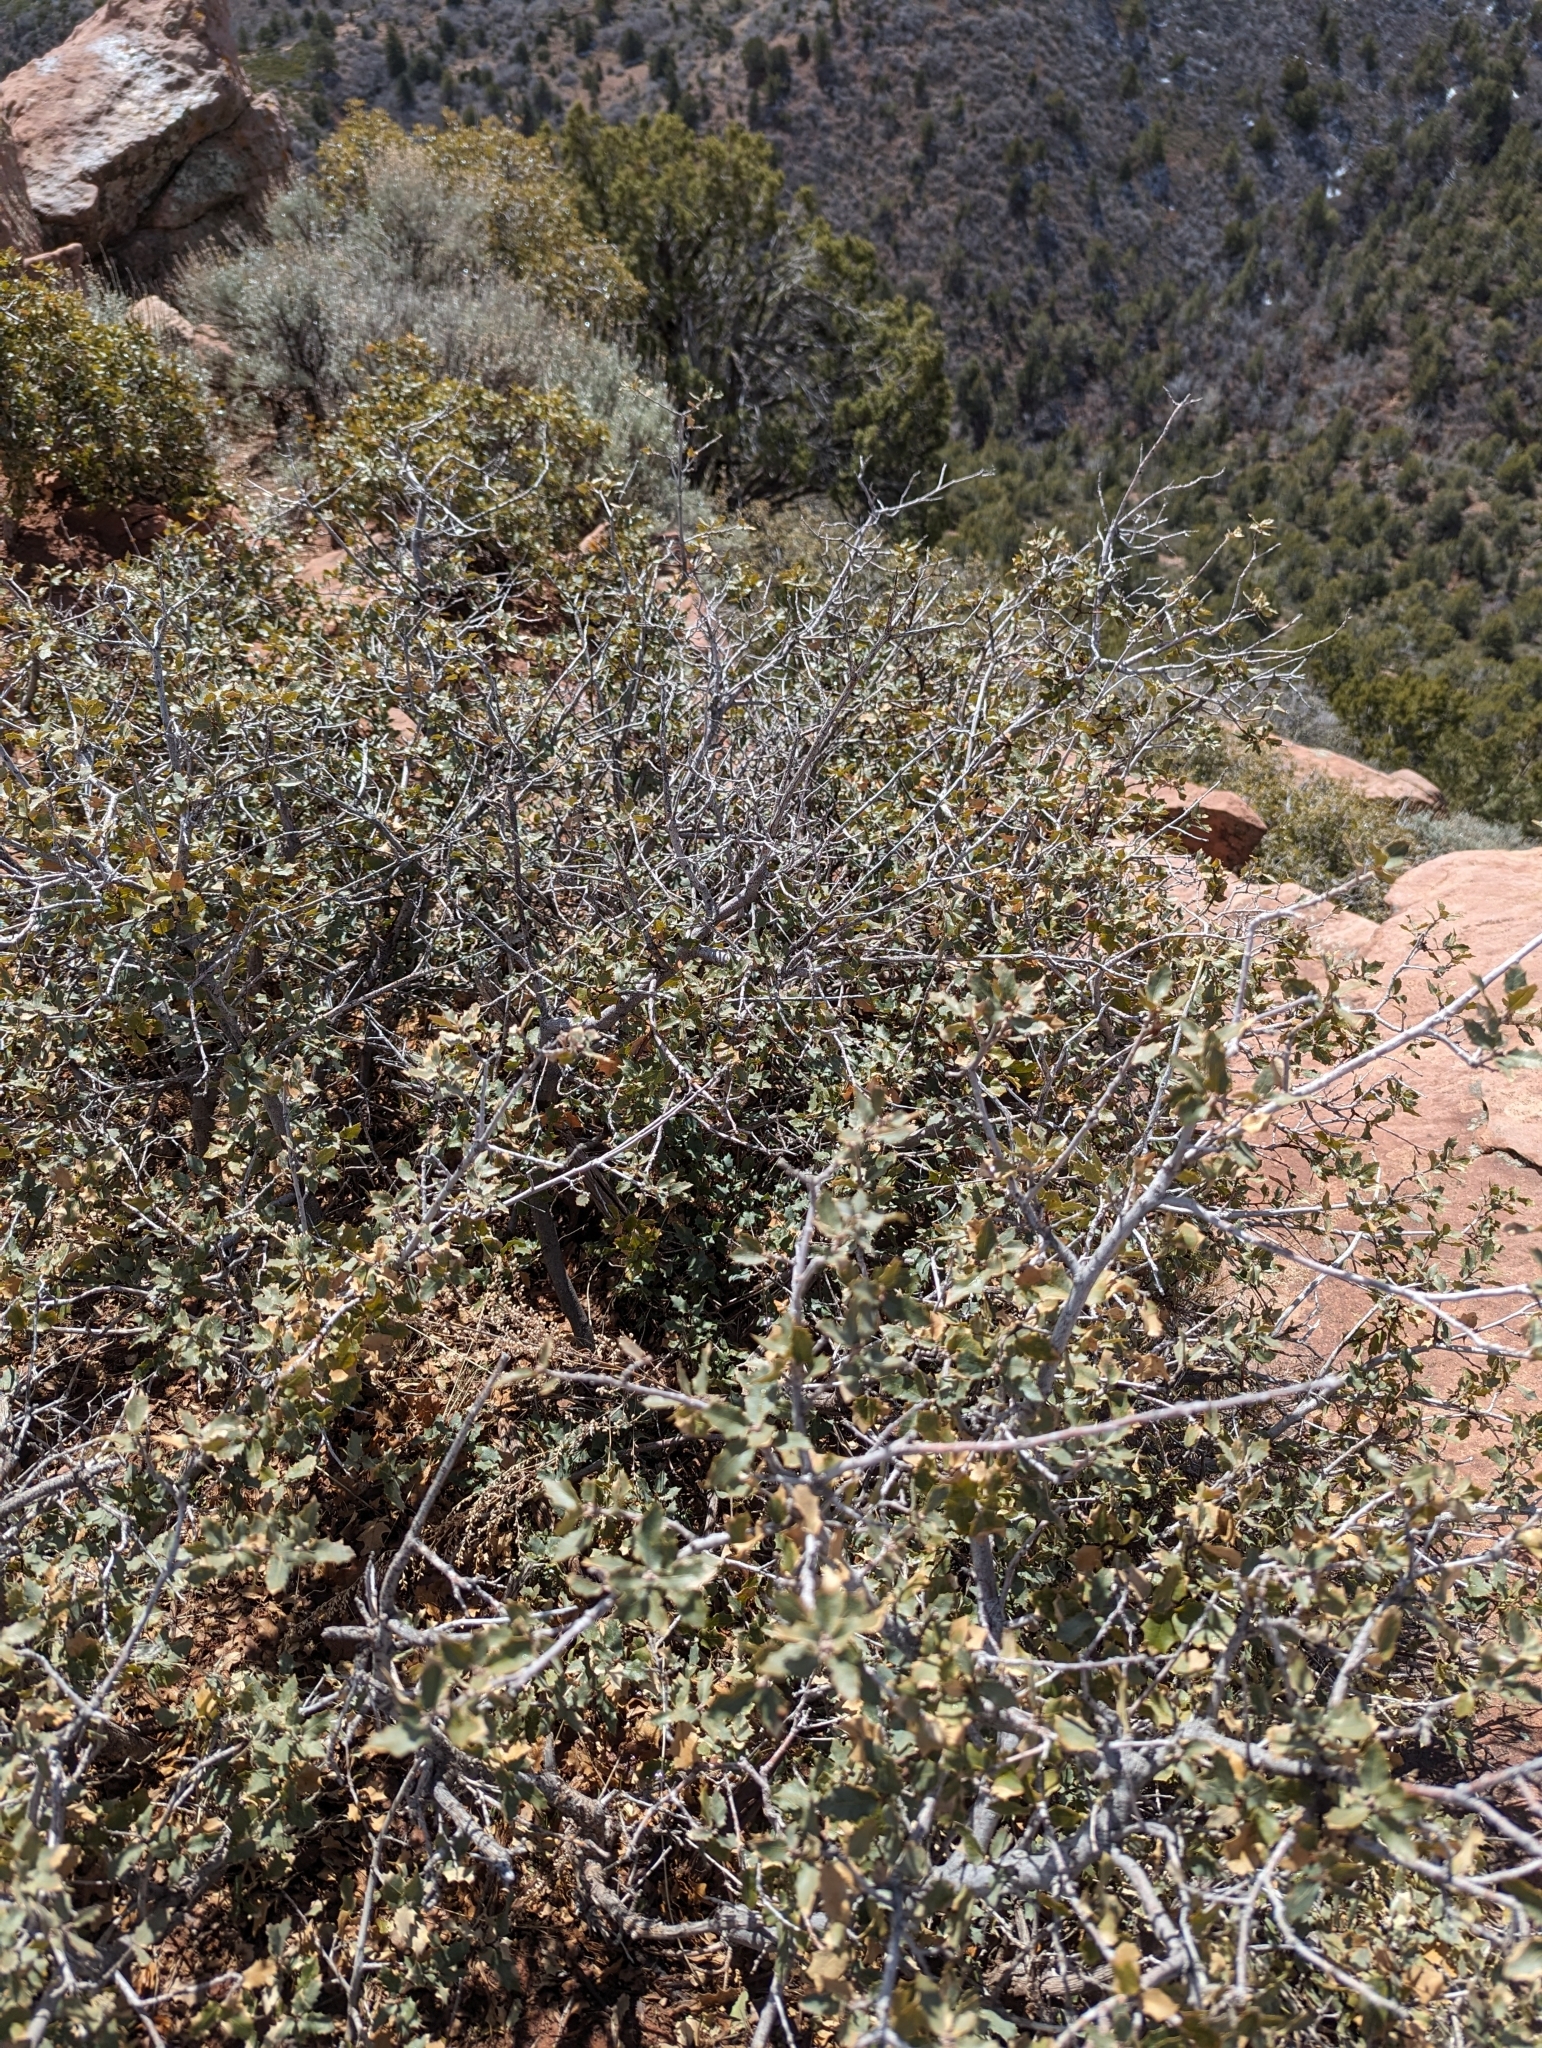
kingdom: Plantae
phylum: Tracheophyta
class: Magnoliopsida
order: Fagales
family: Fagaceae
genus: Quercus
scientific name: Quercus turbinella
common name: Sonoran scrub oak
